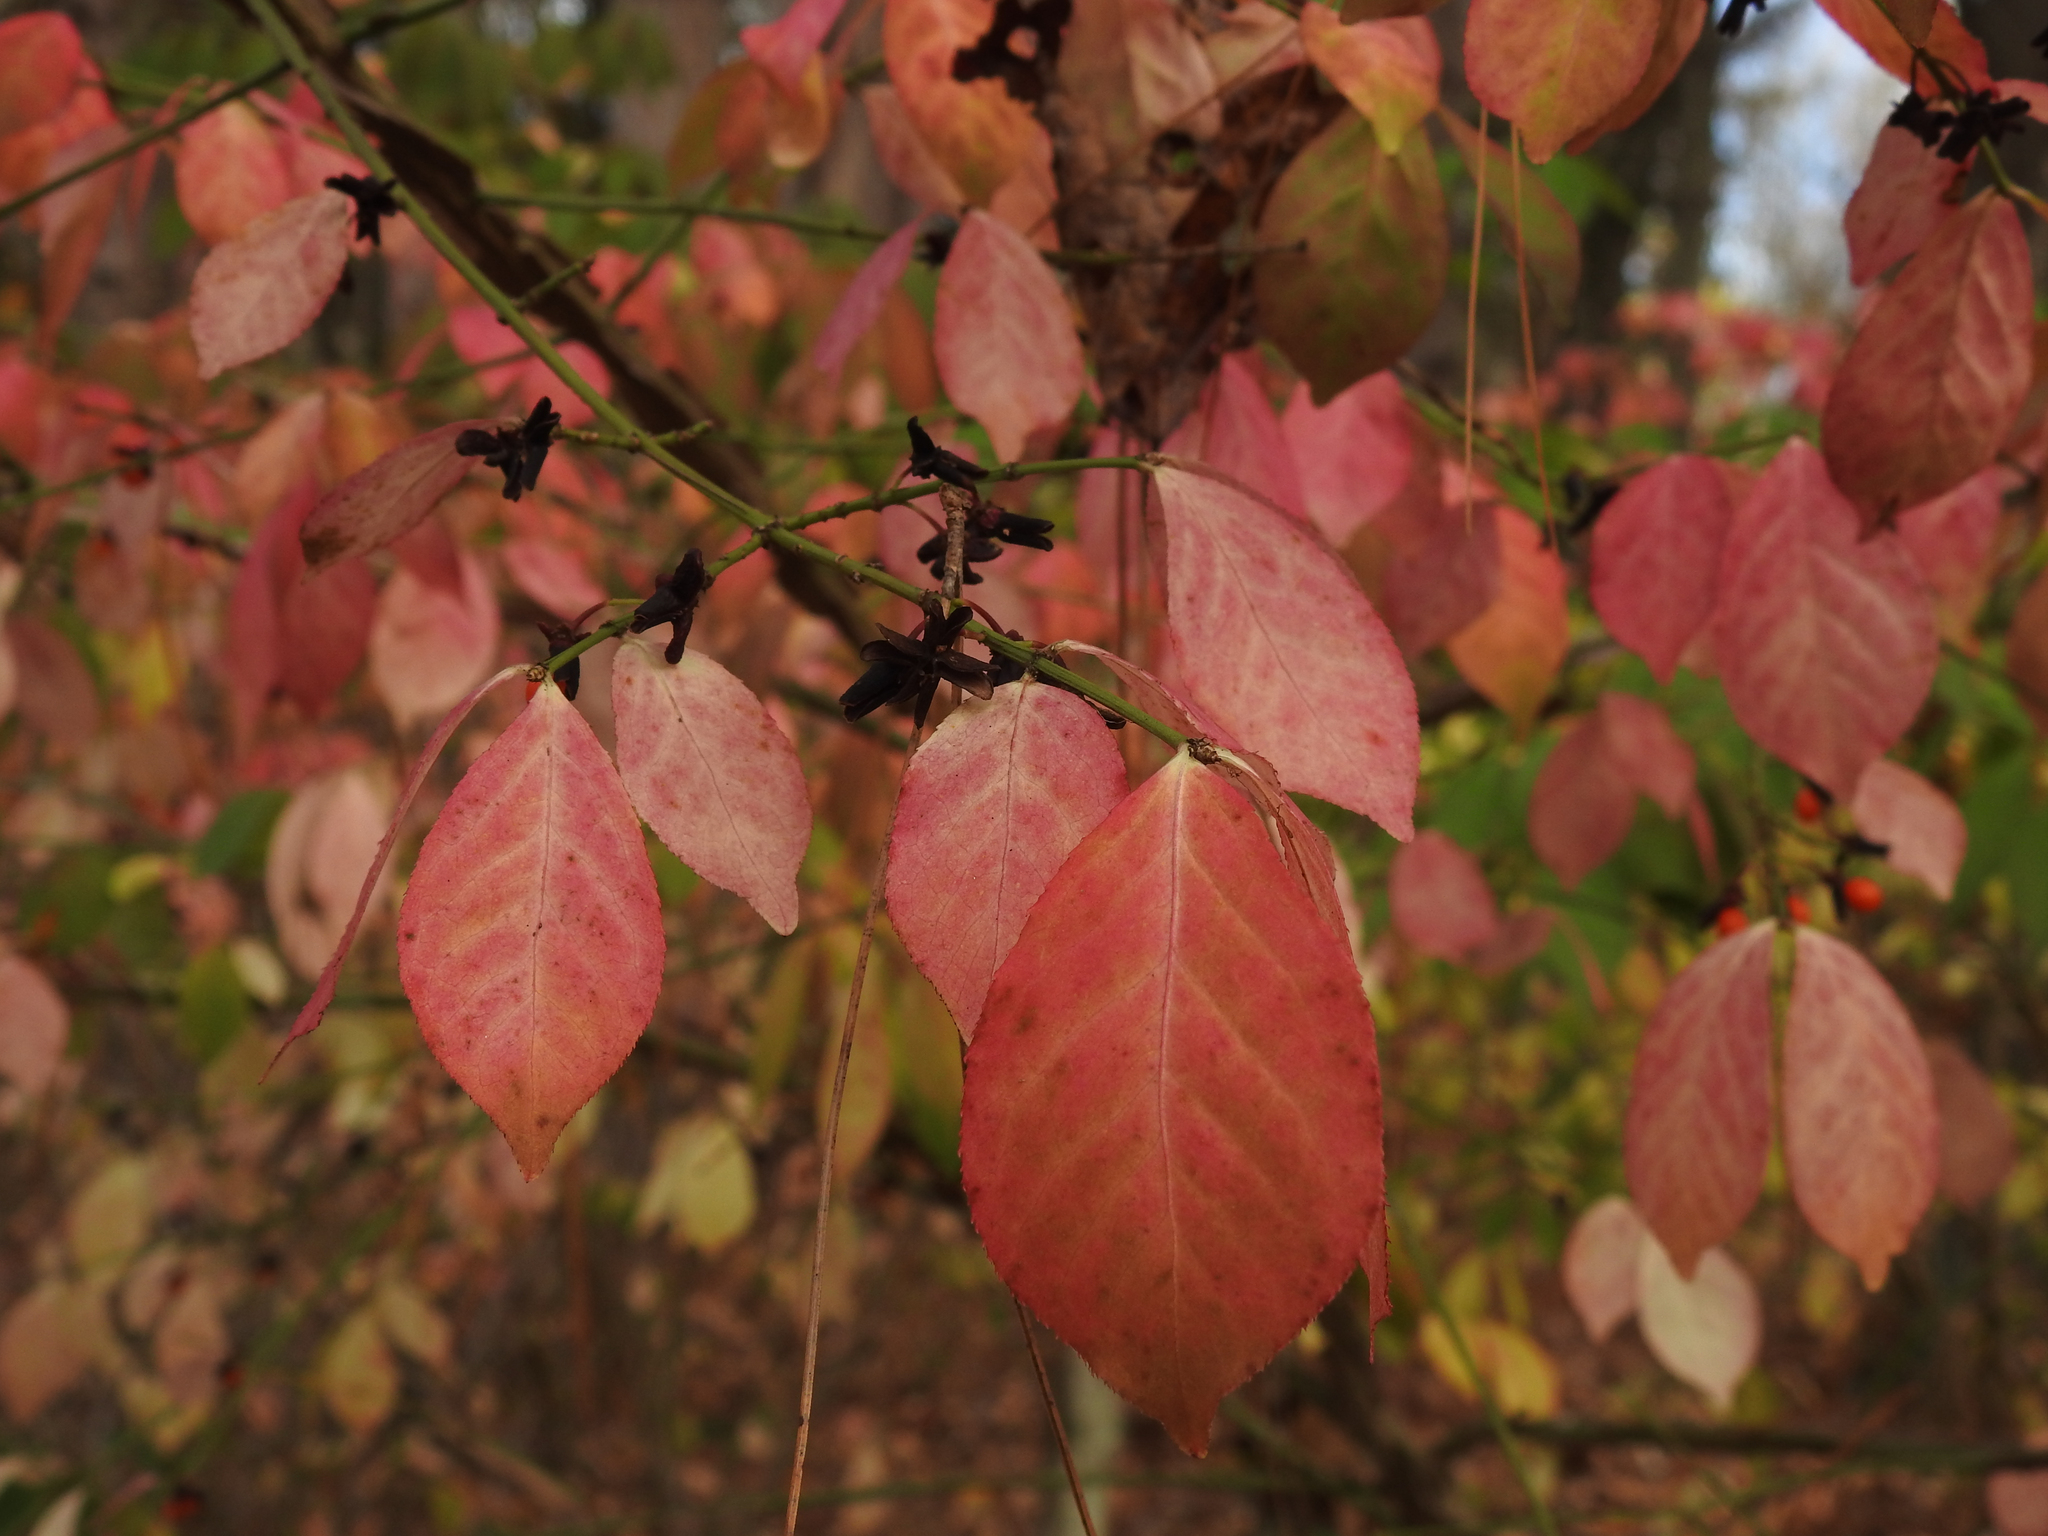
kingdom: Plantae
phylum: Tracheophyta
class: Magnoliopsida
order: Celastrales
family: Celastraceae
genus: Euonymus
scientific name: Euonymus alatus
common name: Winged euonymus
